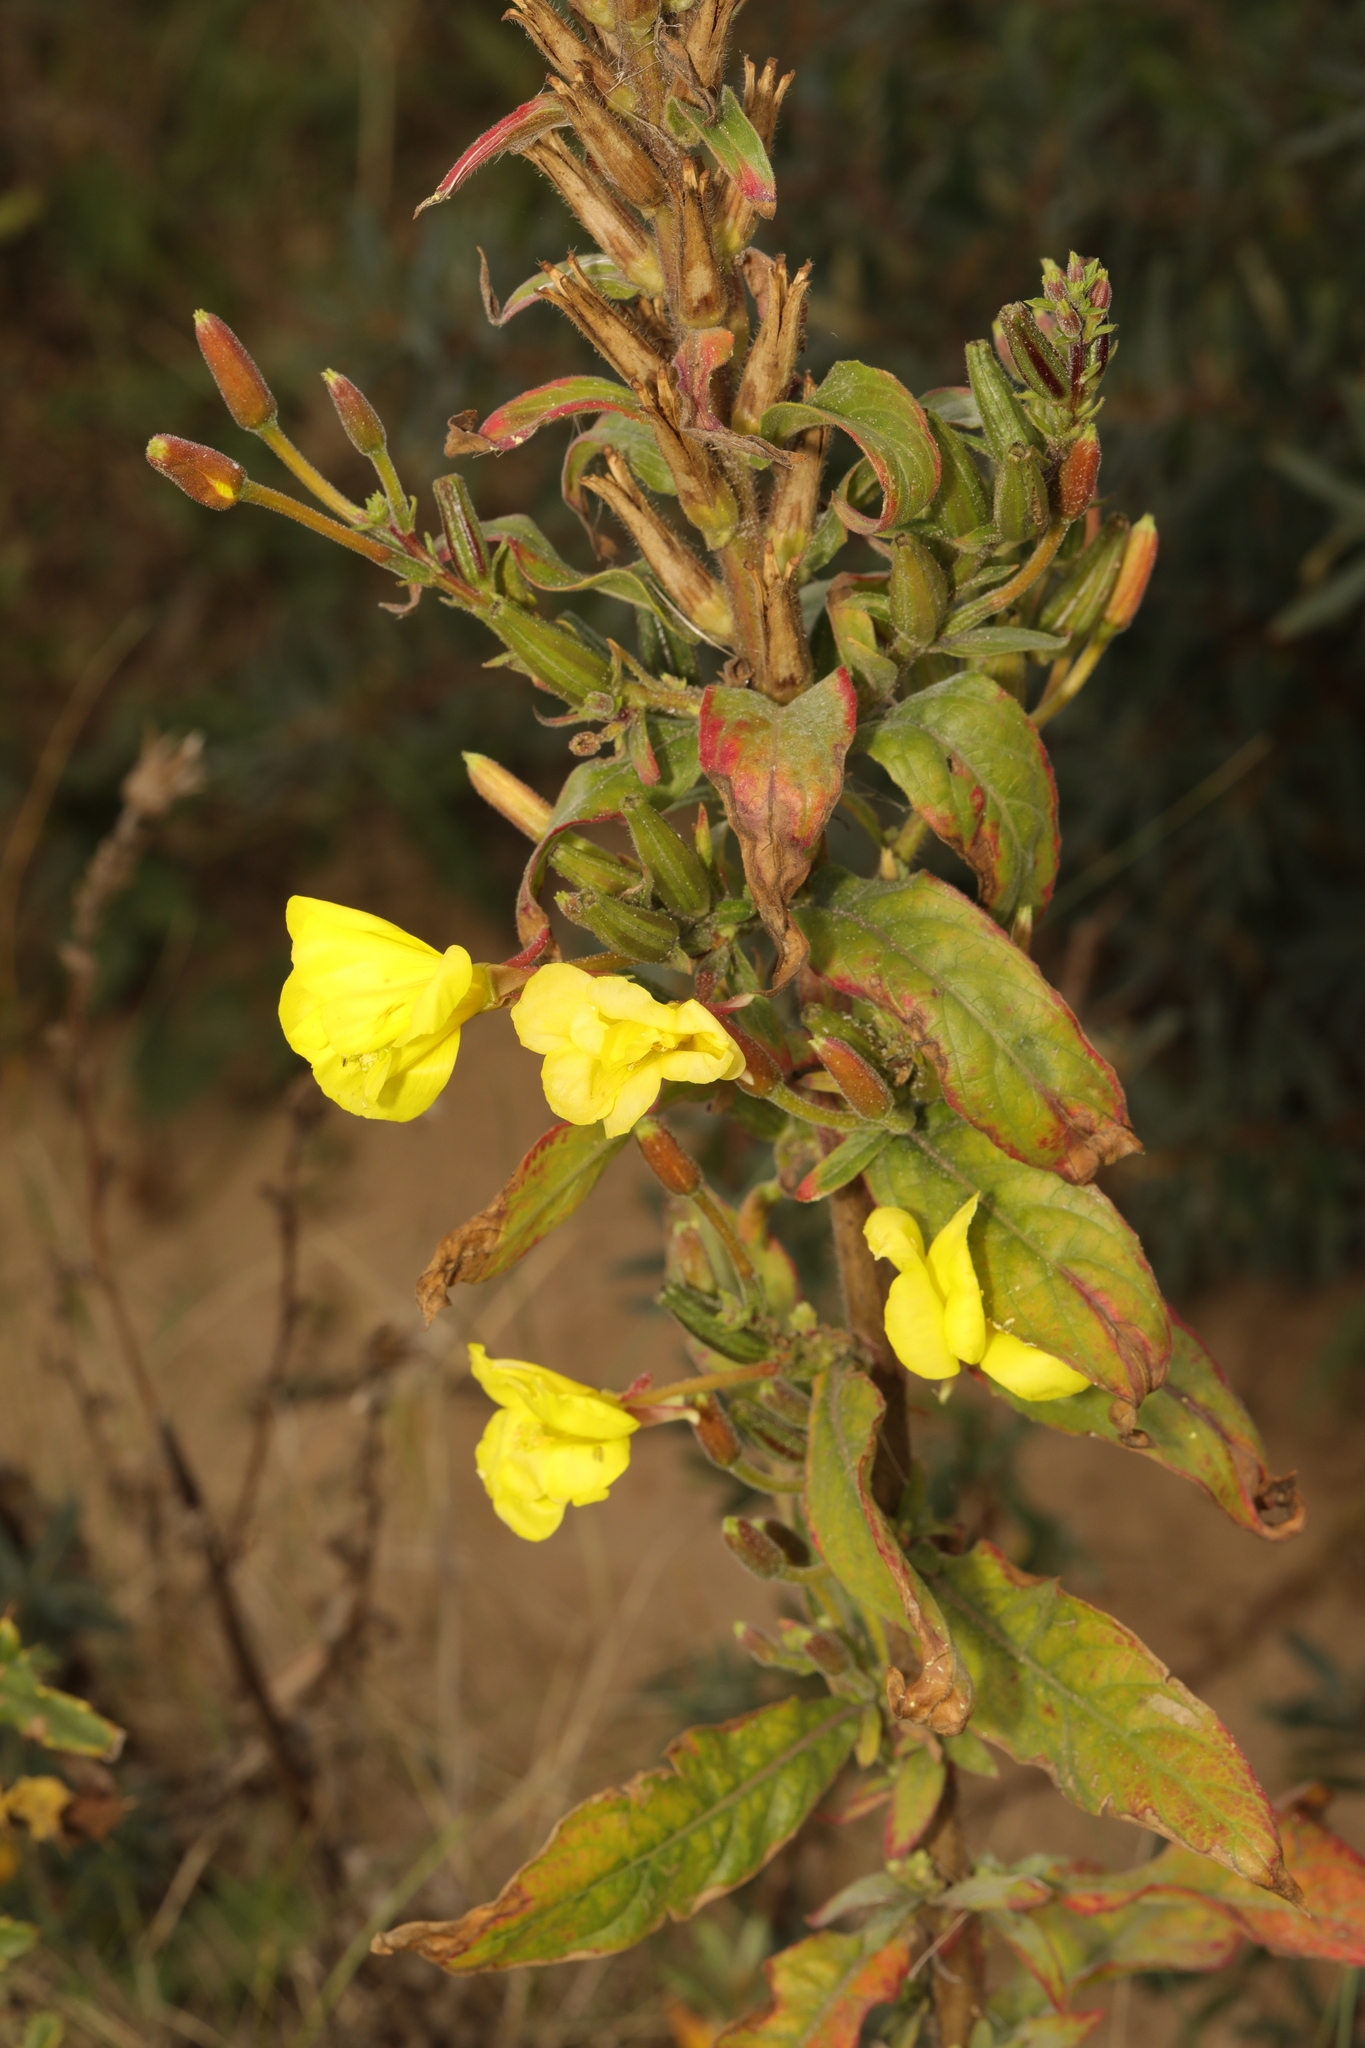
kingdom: Plantae
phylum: Tracheophyta
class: Magnoliopsida
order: Myrtales
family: Onagraceae
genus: Oenothera
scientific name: Oenothera glazioviana
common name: Large-flowered evening-primrose
